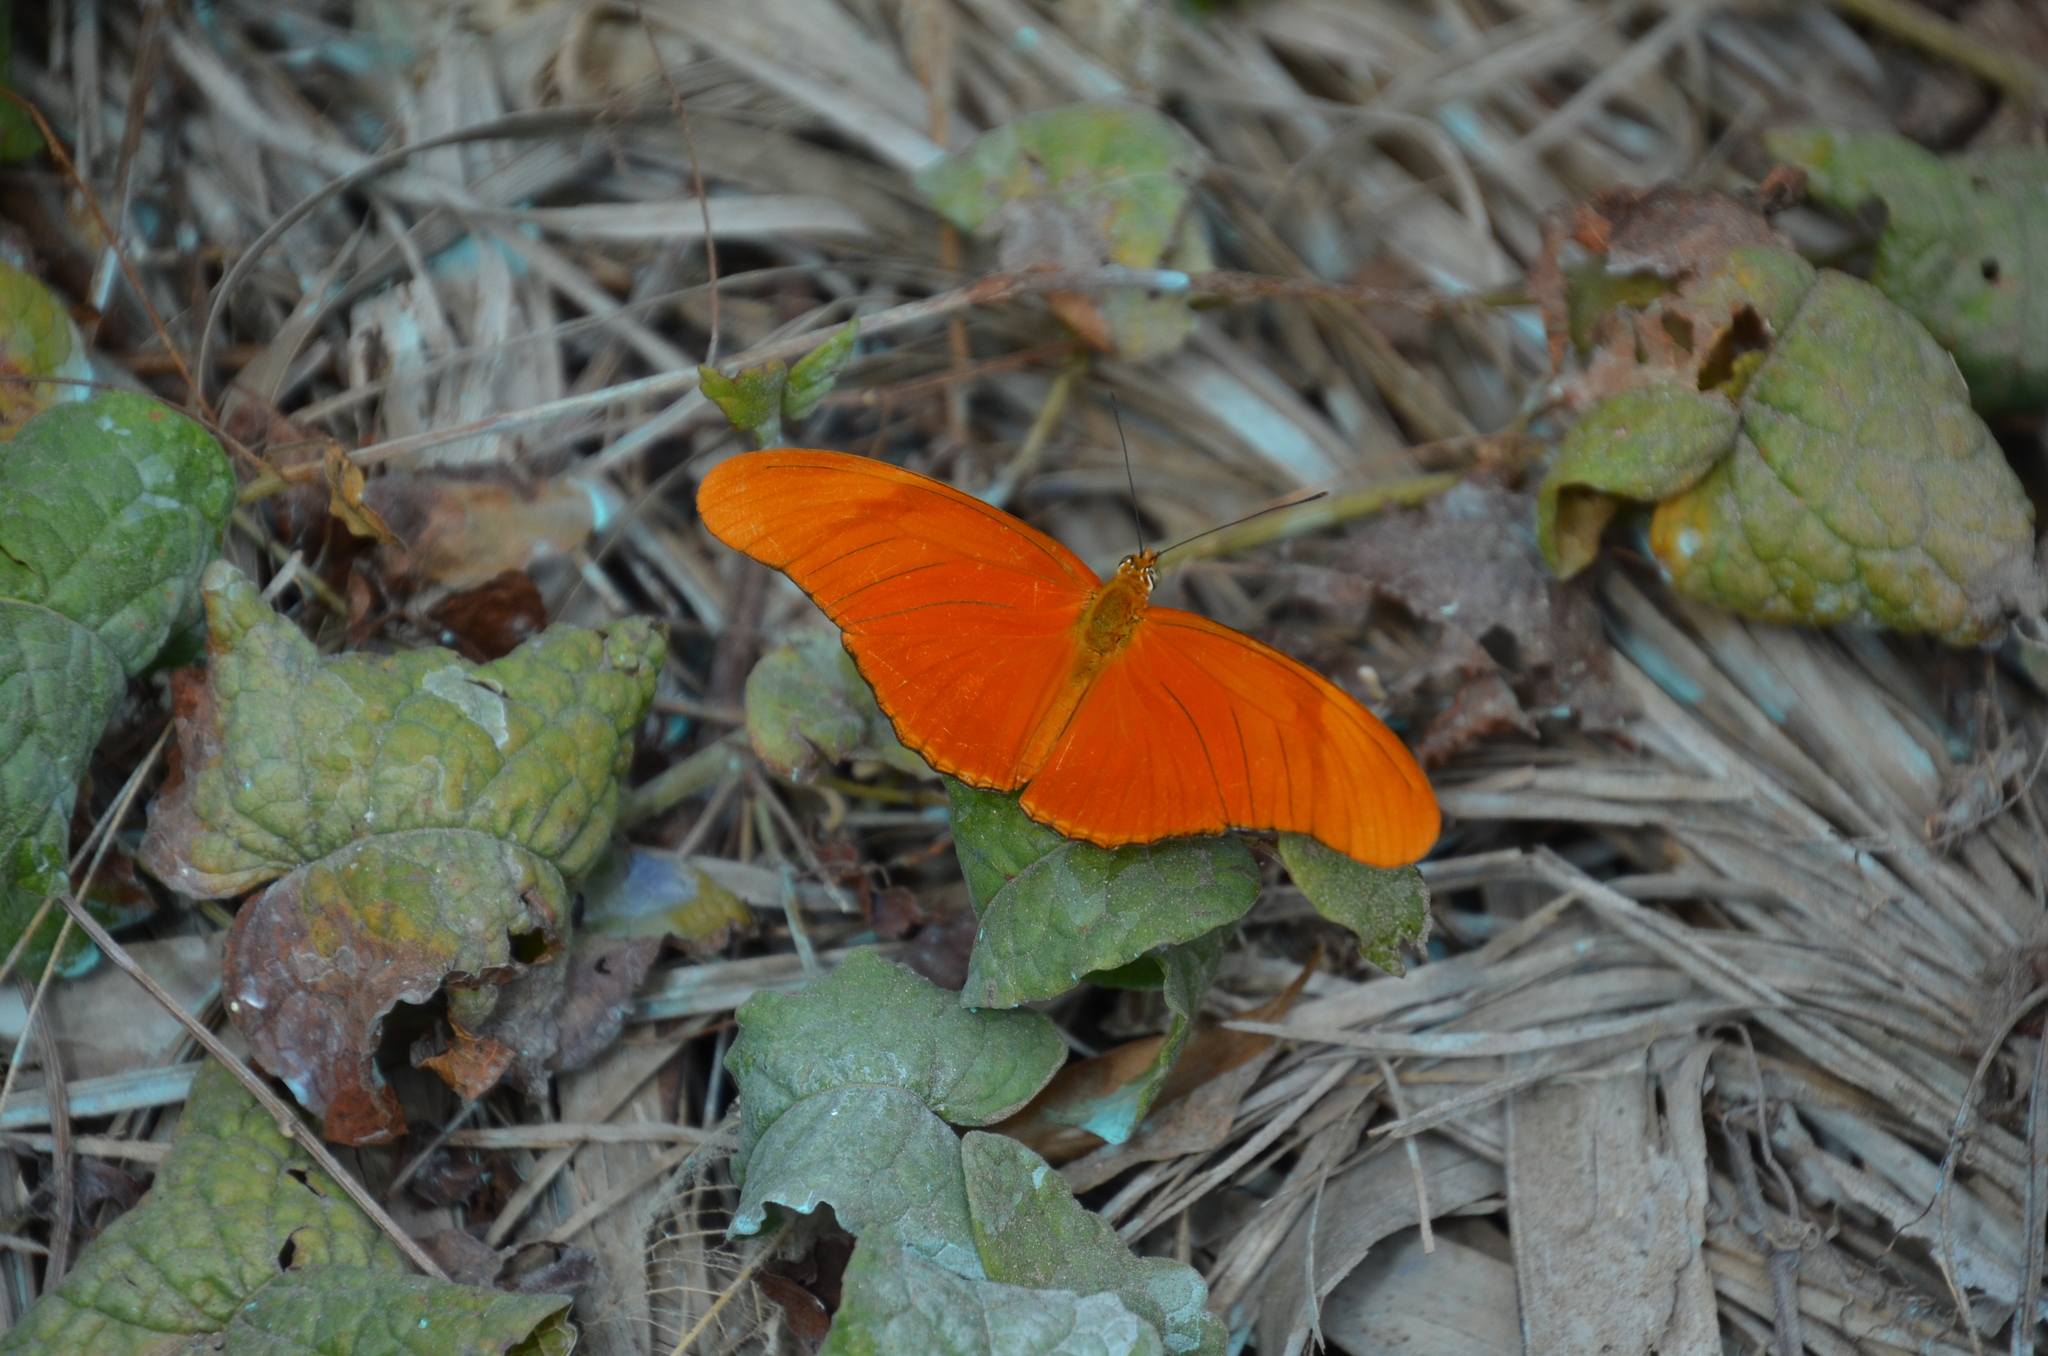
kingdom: Animalia
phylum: Arthropoda
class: Insecta
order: Lepidoptera
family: Nymphalidae
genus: Dryas
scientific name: Dryas iulia
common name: Flambeau
